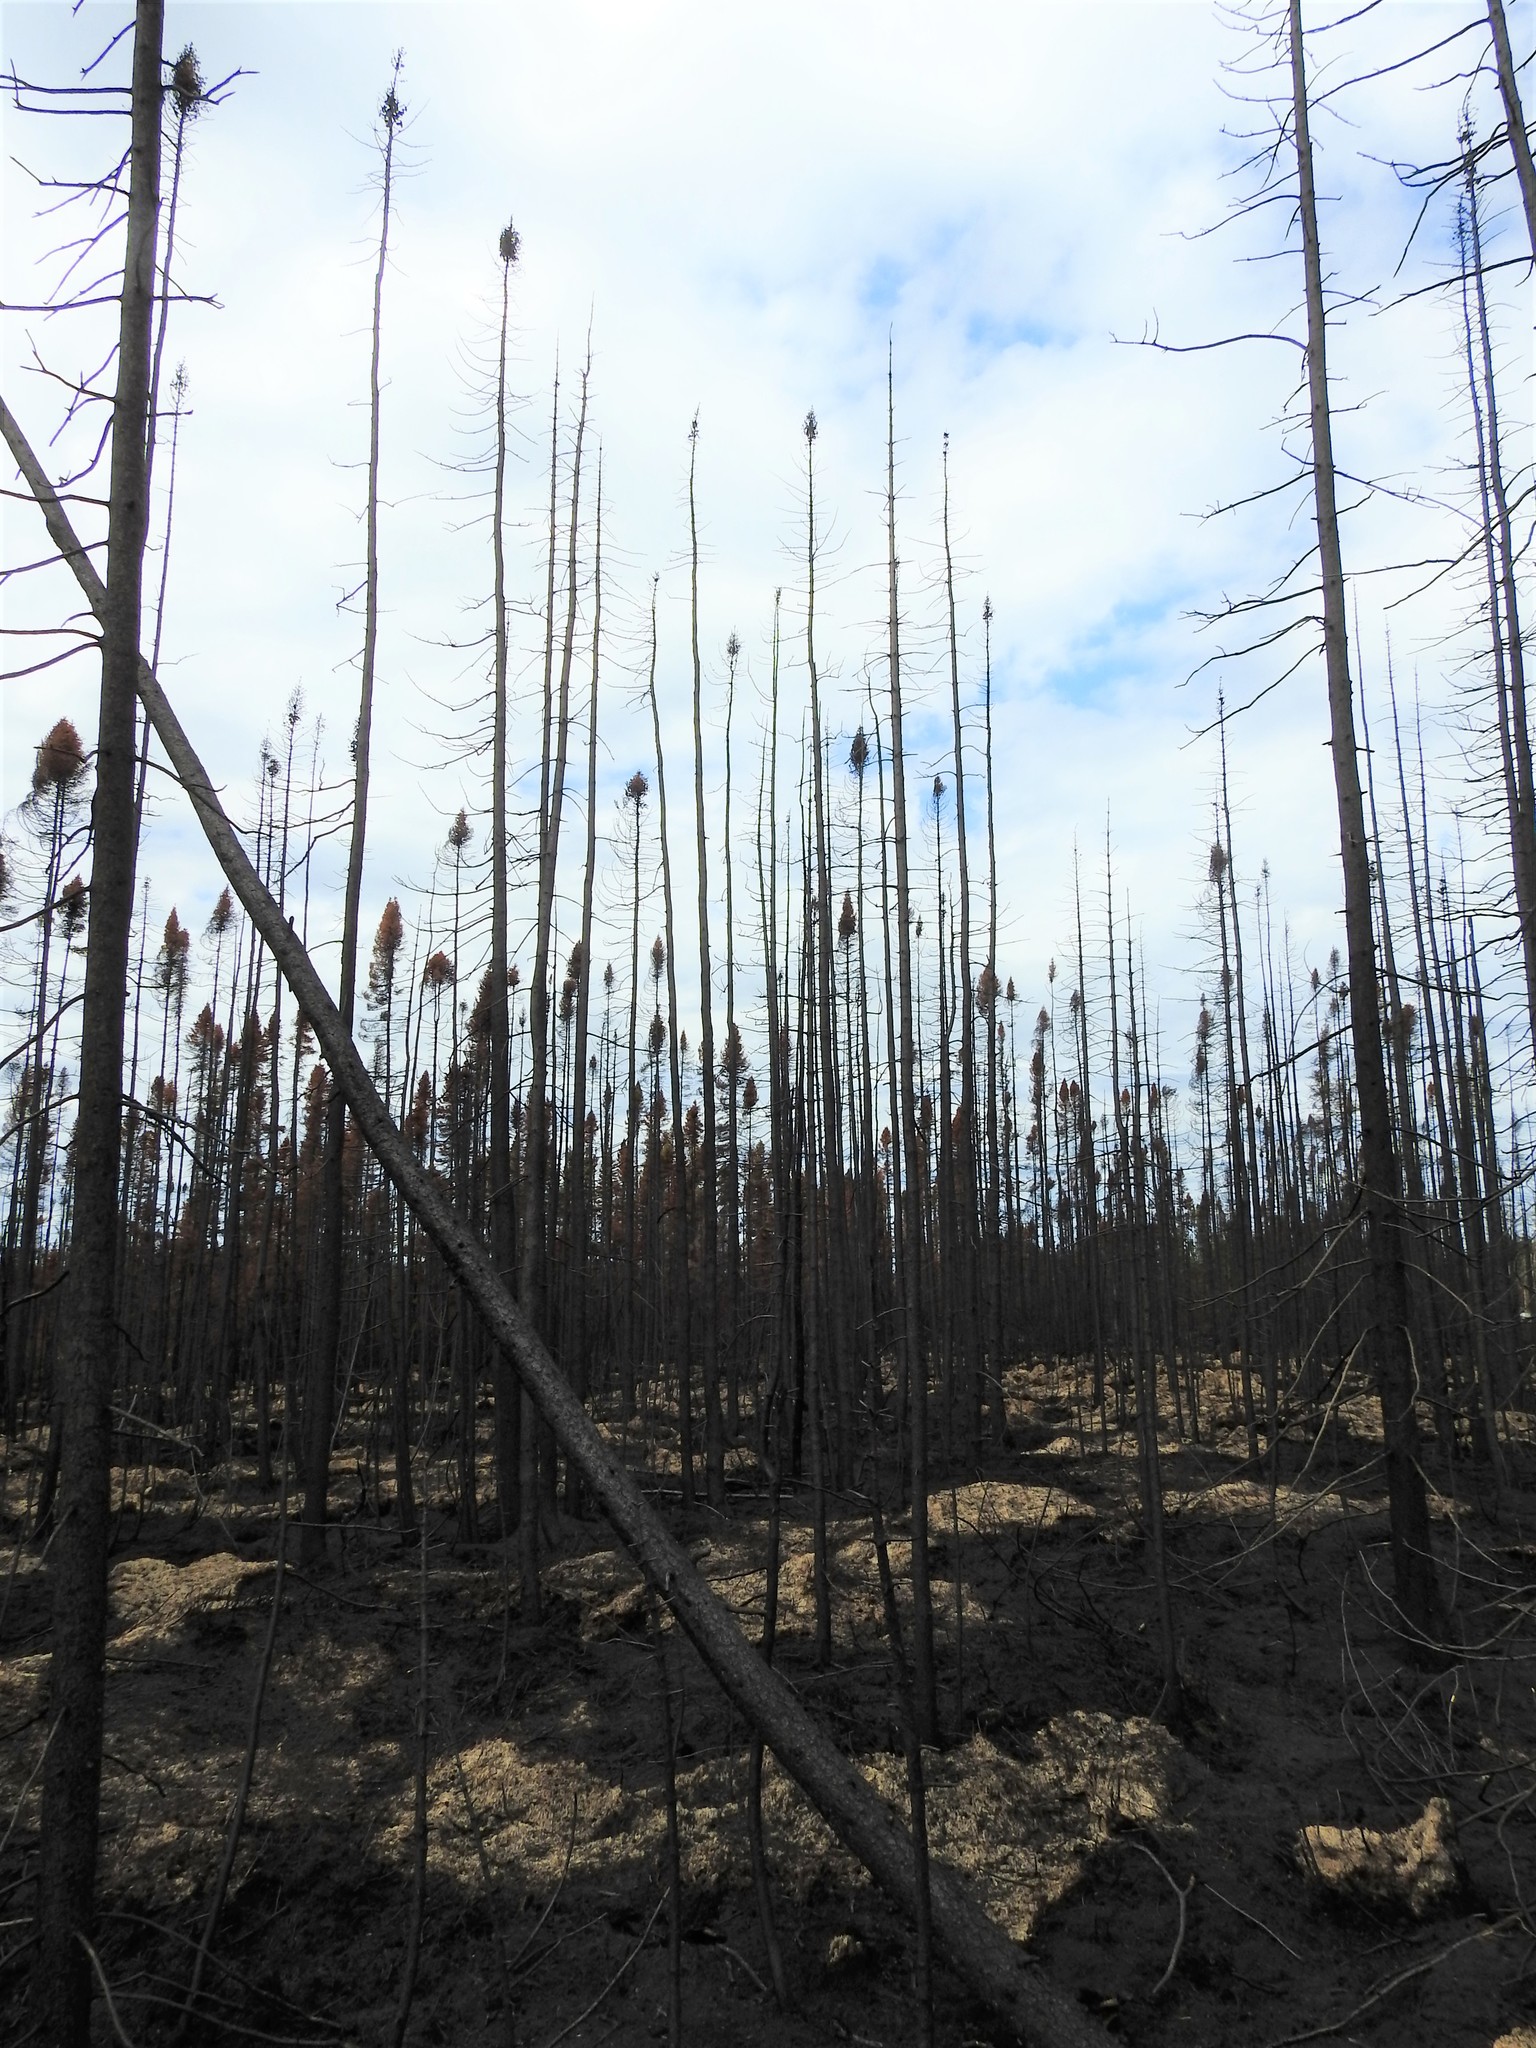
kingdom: Plantae
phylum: Tracheophyta
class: Pinopsida
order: Pinales
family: Pinaceae
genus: Picea
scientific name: Picea mariana
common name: Black spruce
